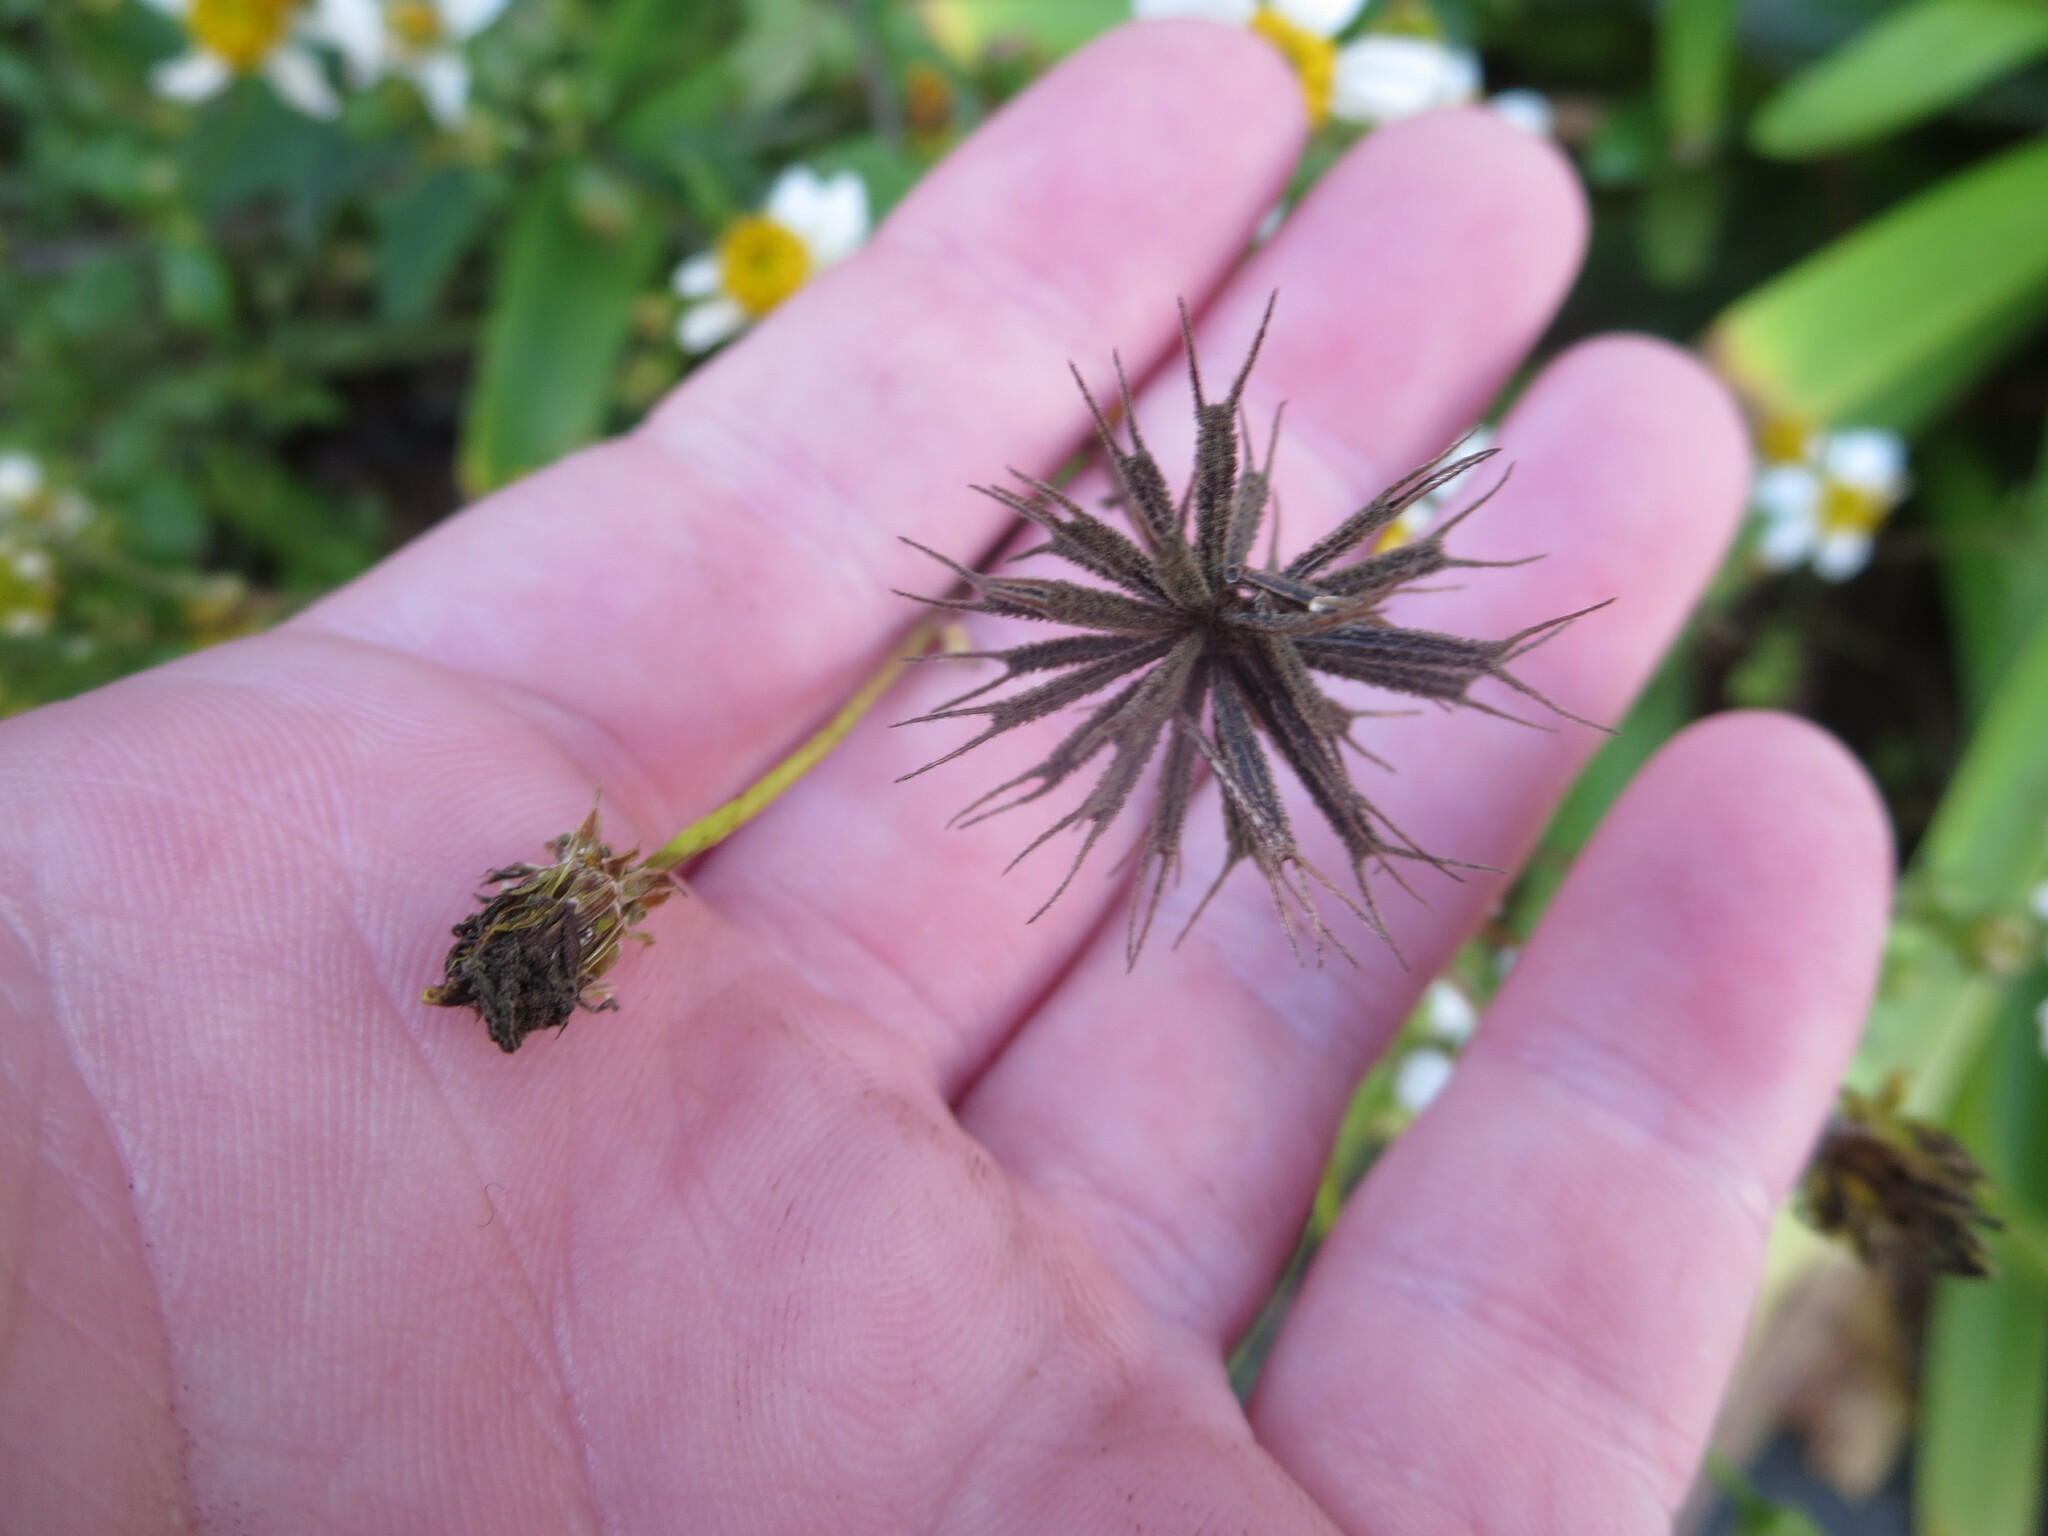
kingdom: Plantae
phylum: Tracheophyta
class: Magnoliopsida
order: Asterales
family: Asteraceae
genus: Bidens
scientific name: Bidens alba
